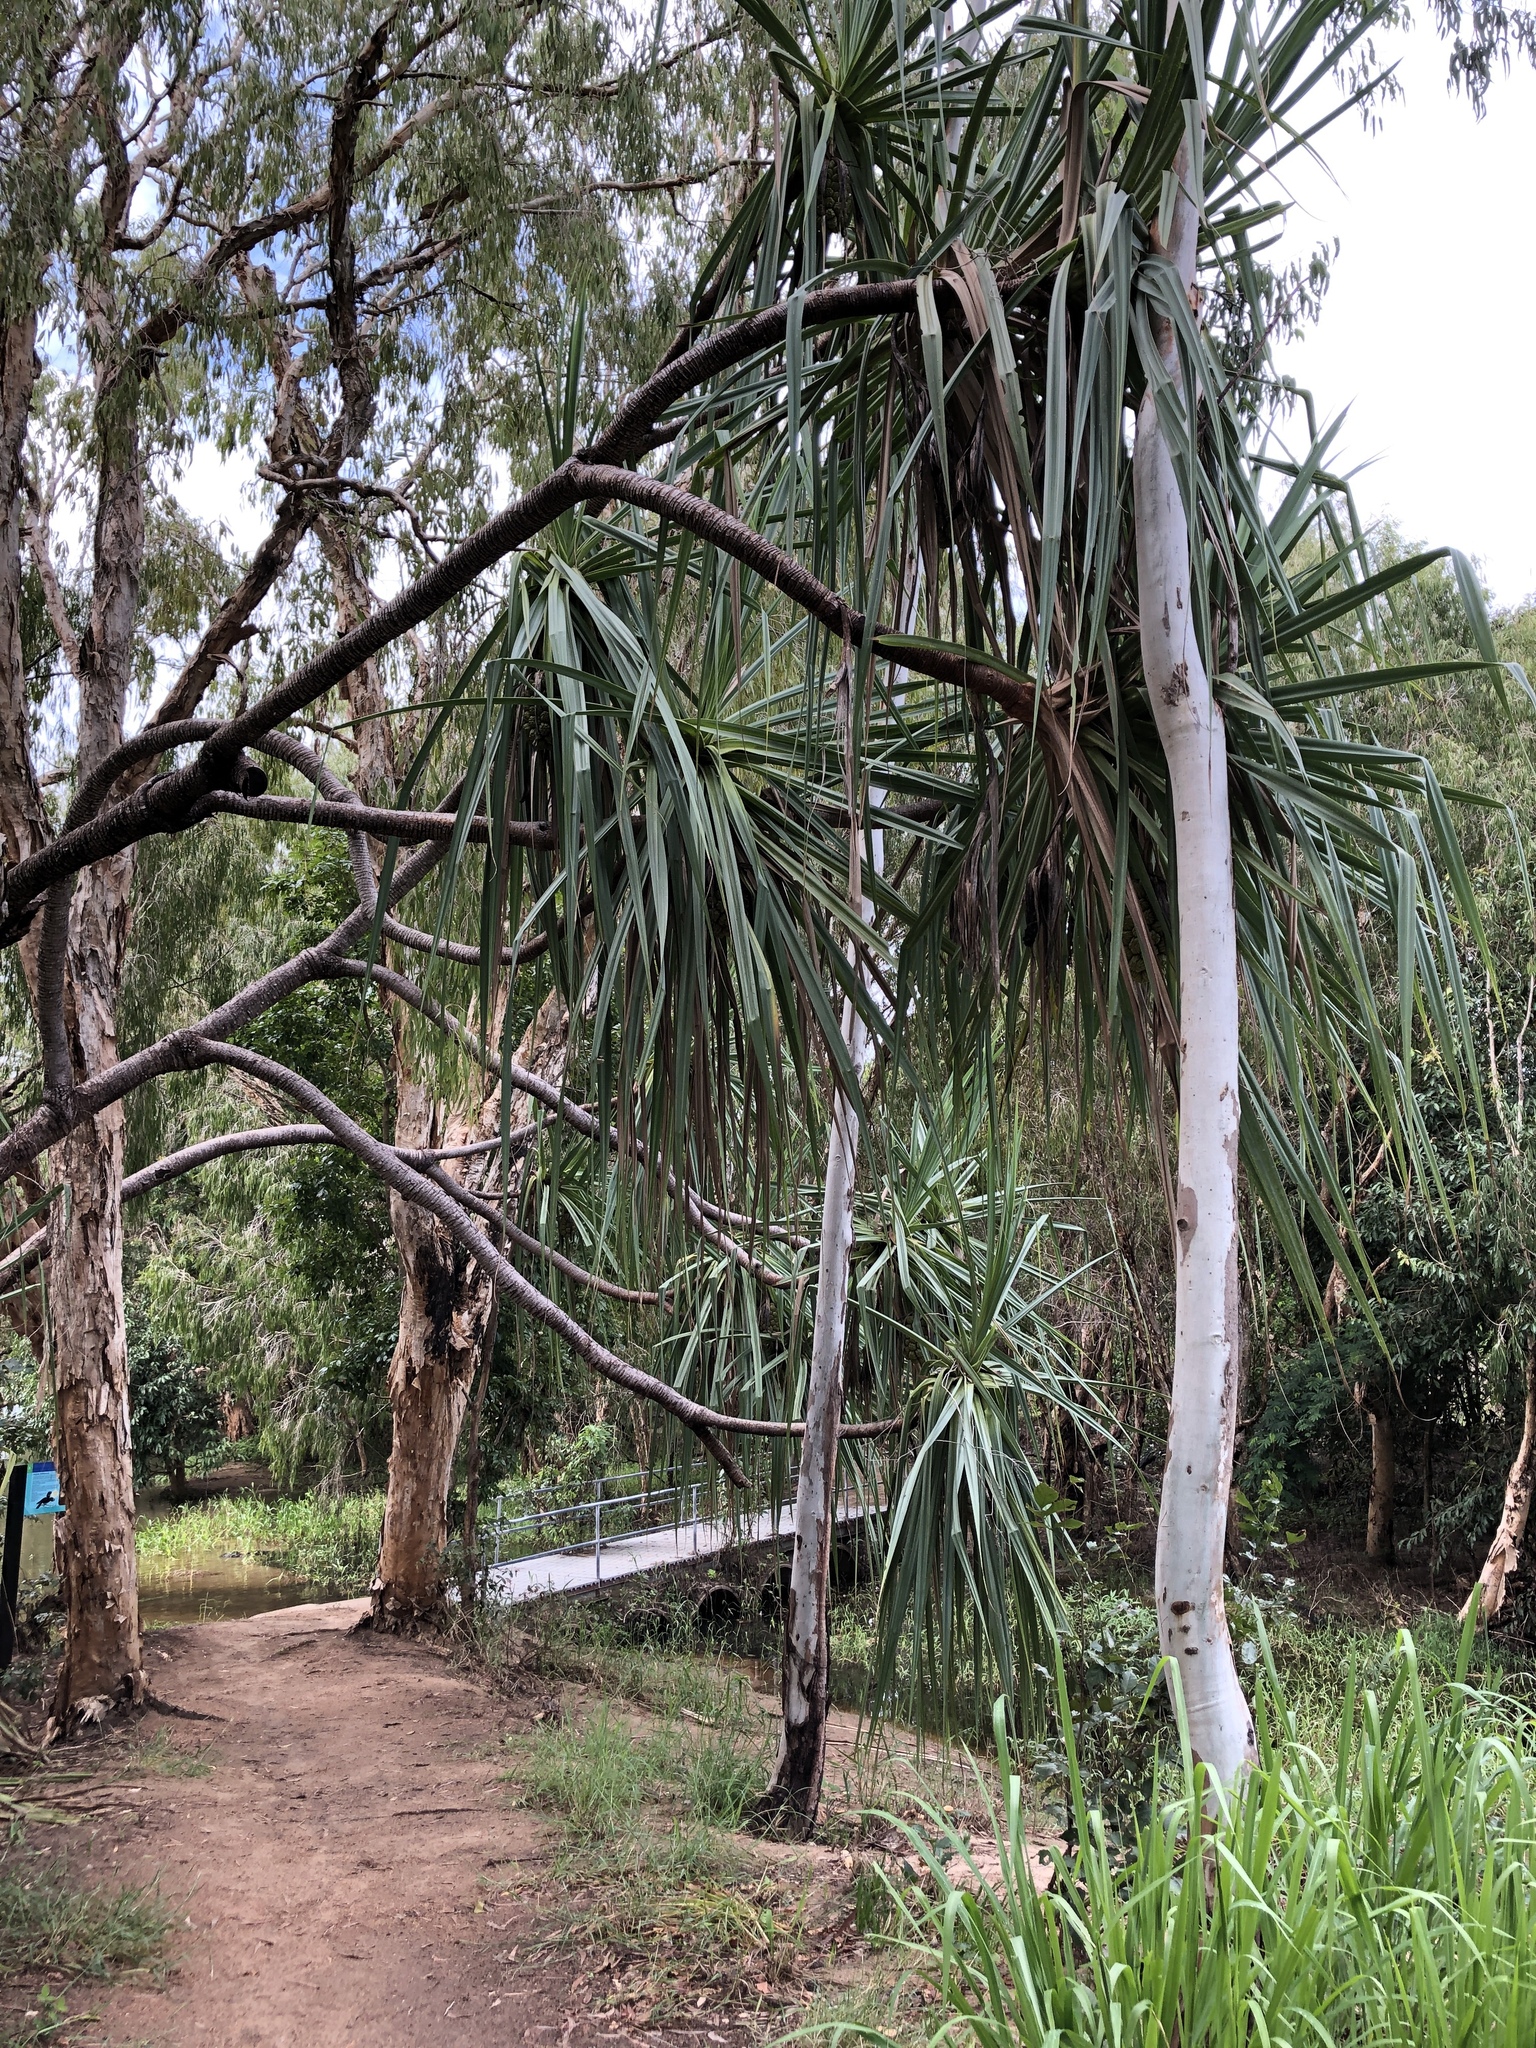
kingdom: Plantae
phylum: Tracheophyta
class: Liliopsida
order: Pandanales
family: Pandanaceae
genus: Pandanus
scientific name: Pandanus tectorius
